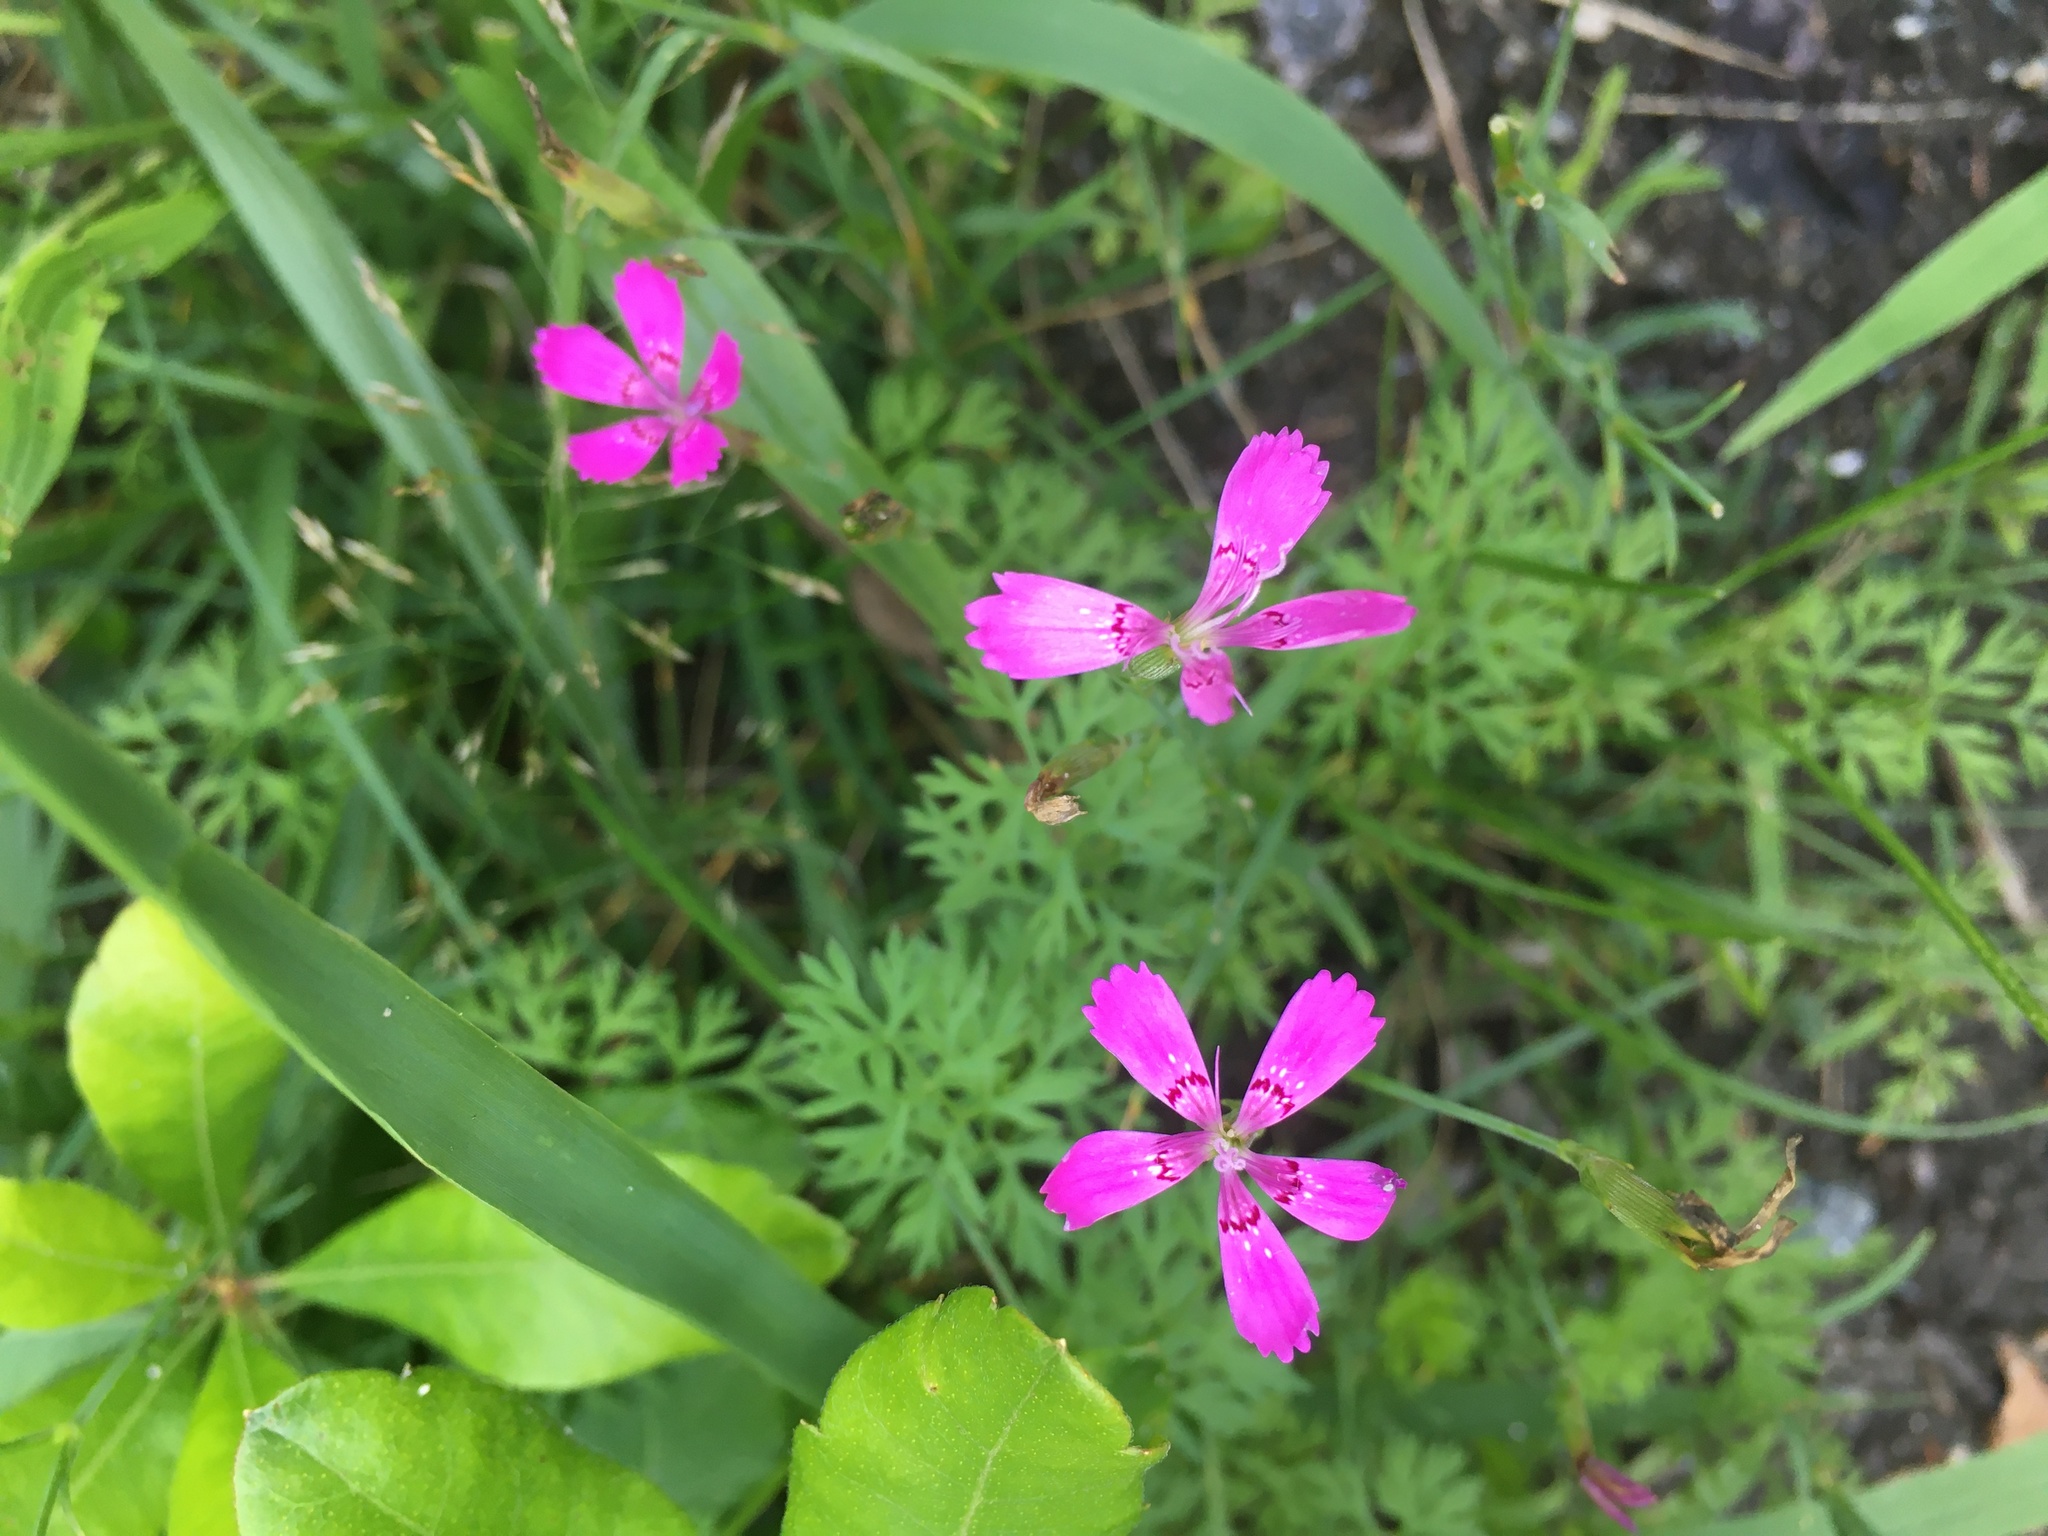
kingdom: Plantae
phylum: Tracheophyta
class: Magnoliopsida
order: Caryophyllales
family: Caryophyllaceae
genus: Dianthus
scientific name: Dianthus deltoides
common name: Maiden pink
